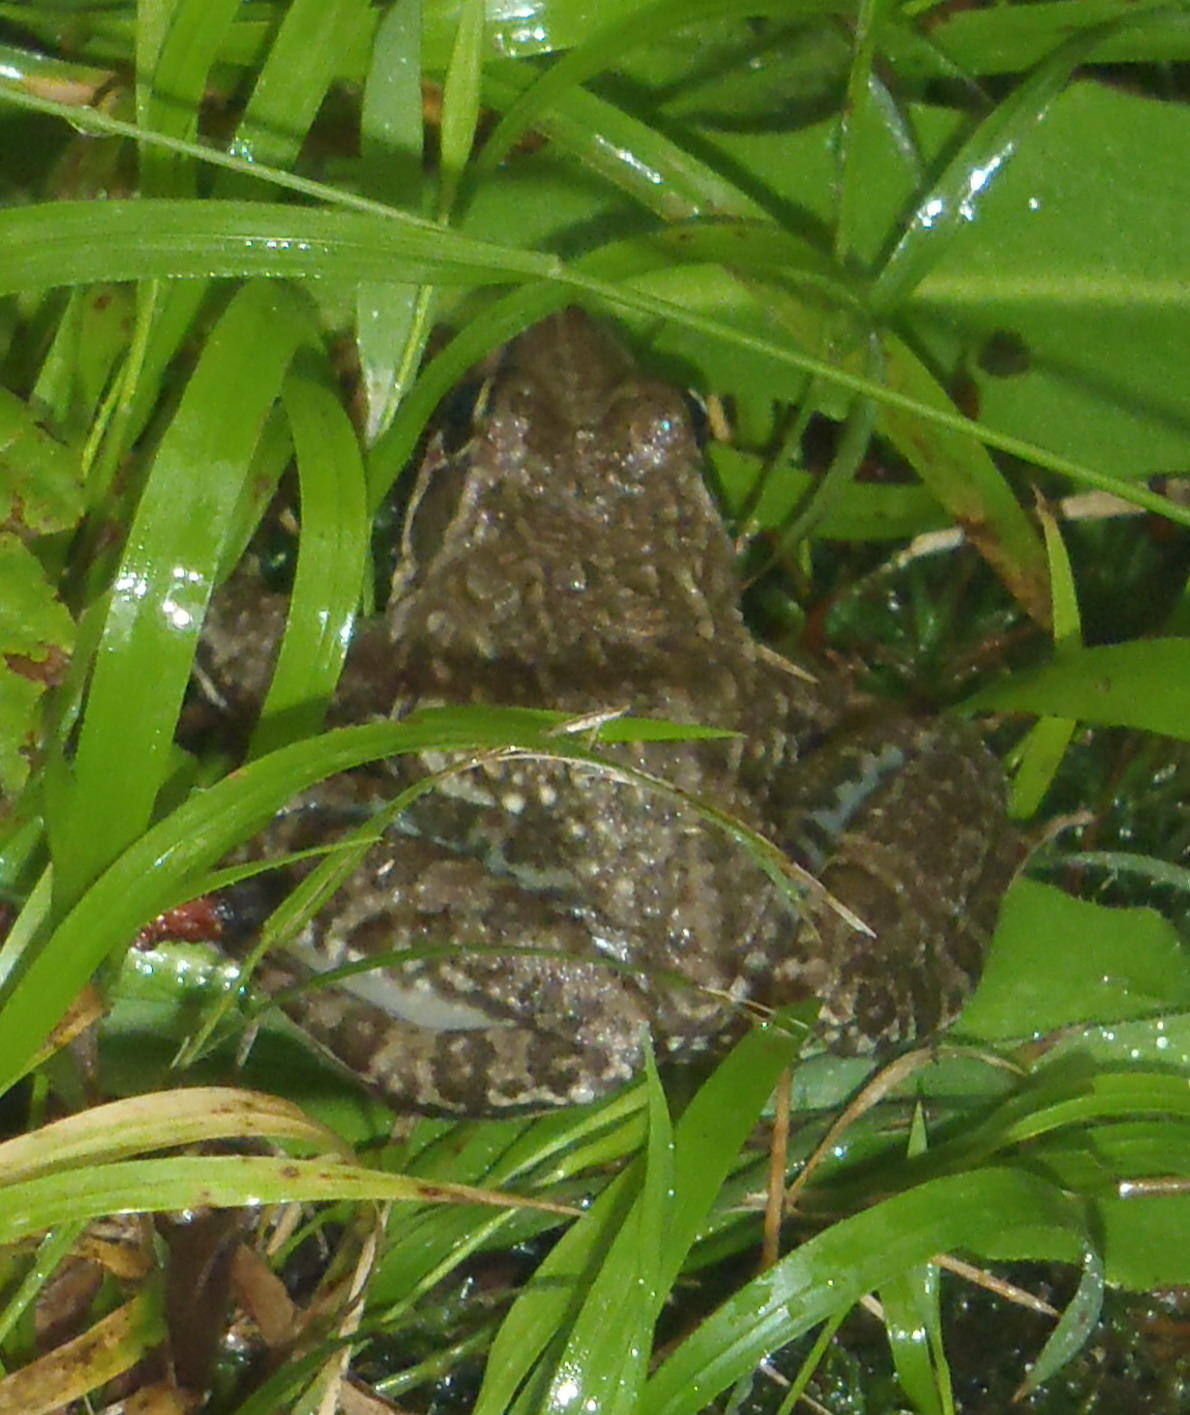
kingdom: Animalia
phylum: Chordata
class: Amphibia
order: Anura
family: Pyxicephalidae
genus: Amietia
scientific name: Amietia fuscigula
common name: Cape rana
